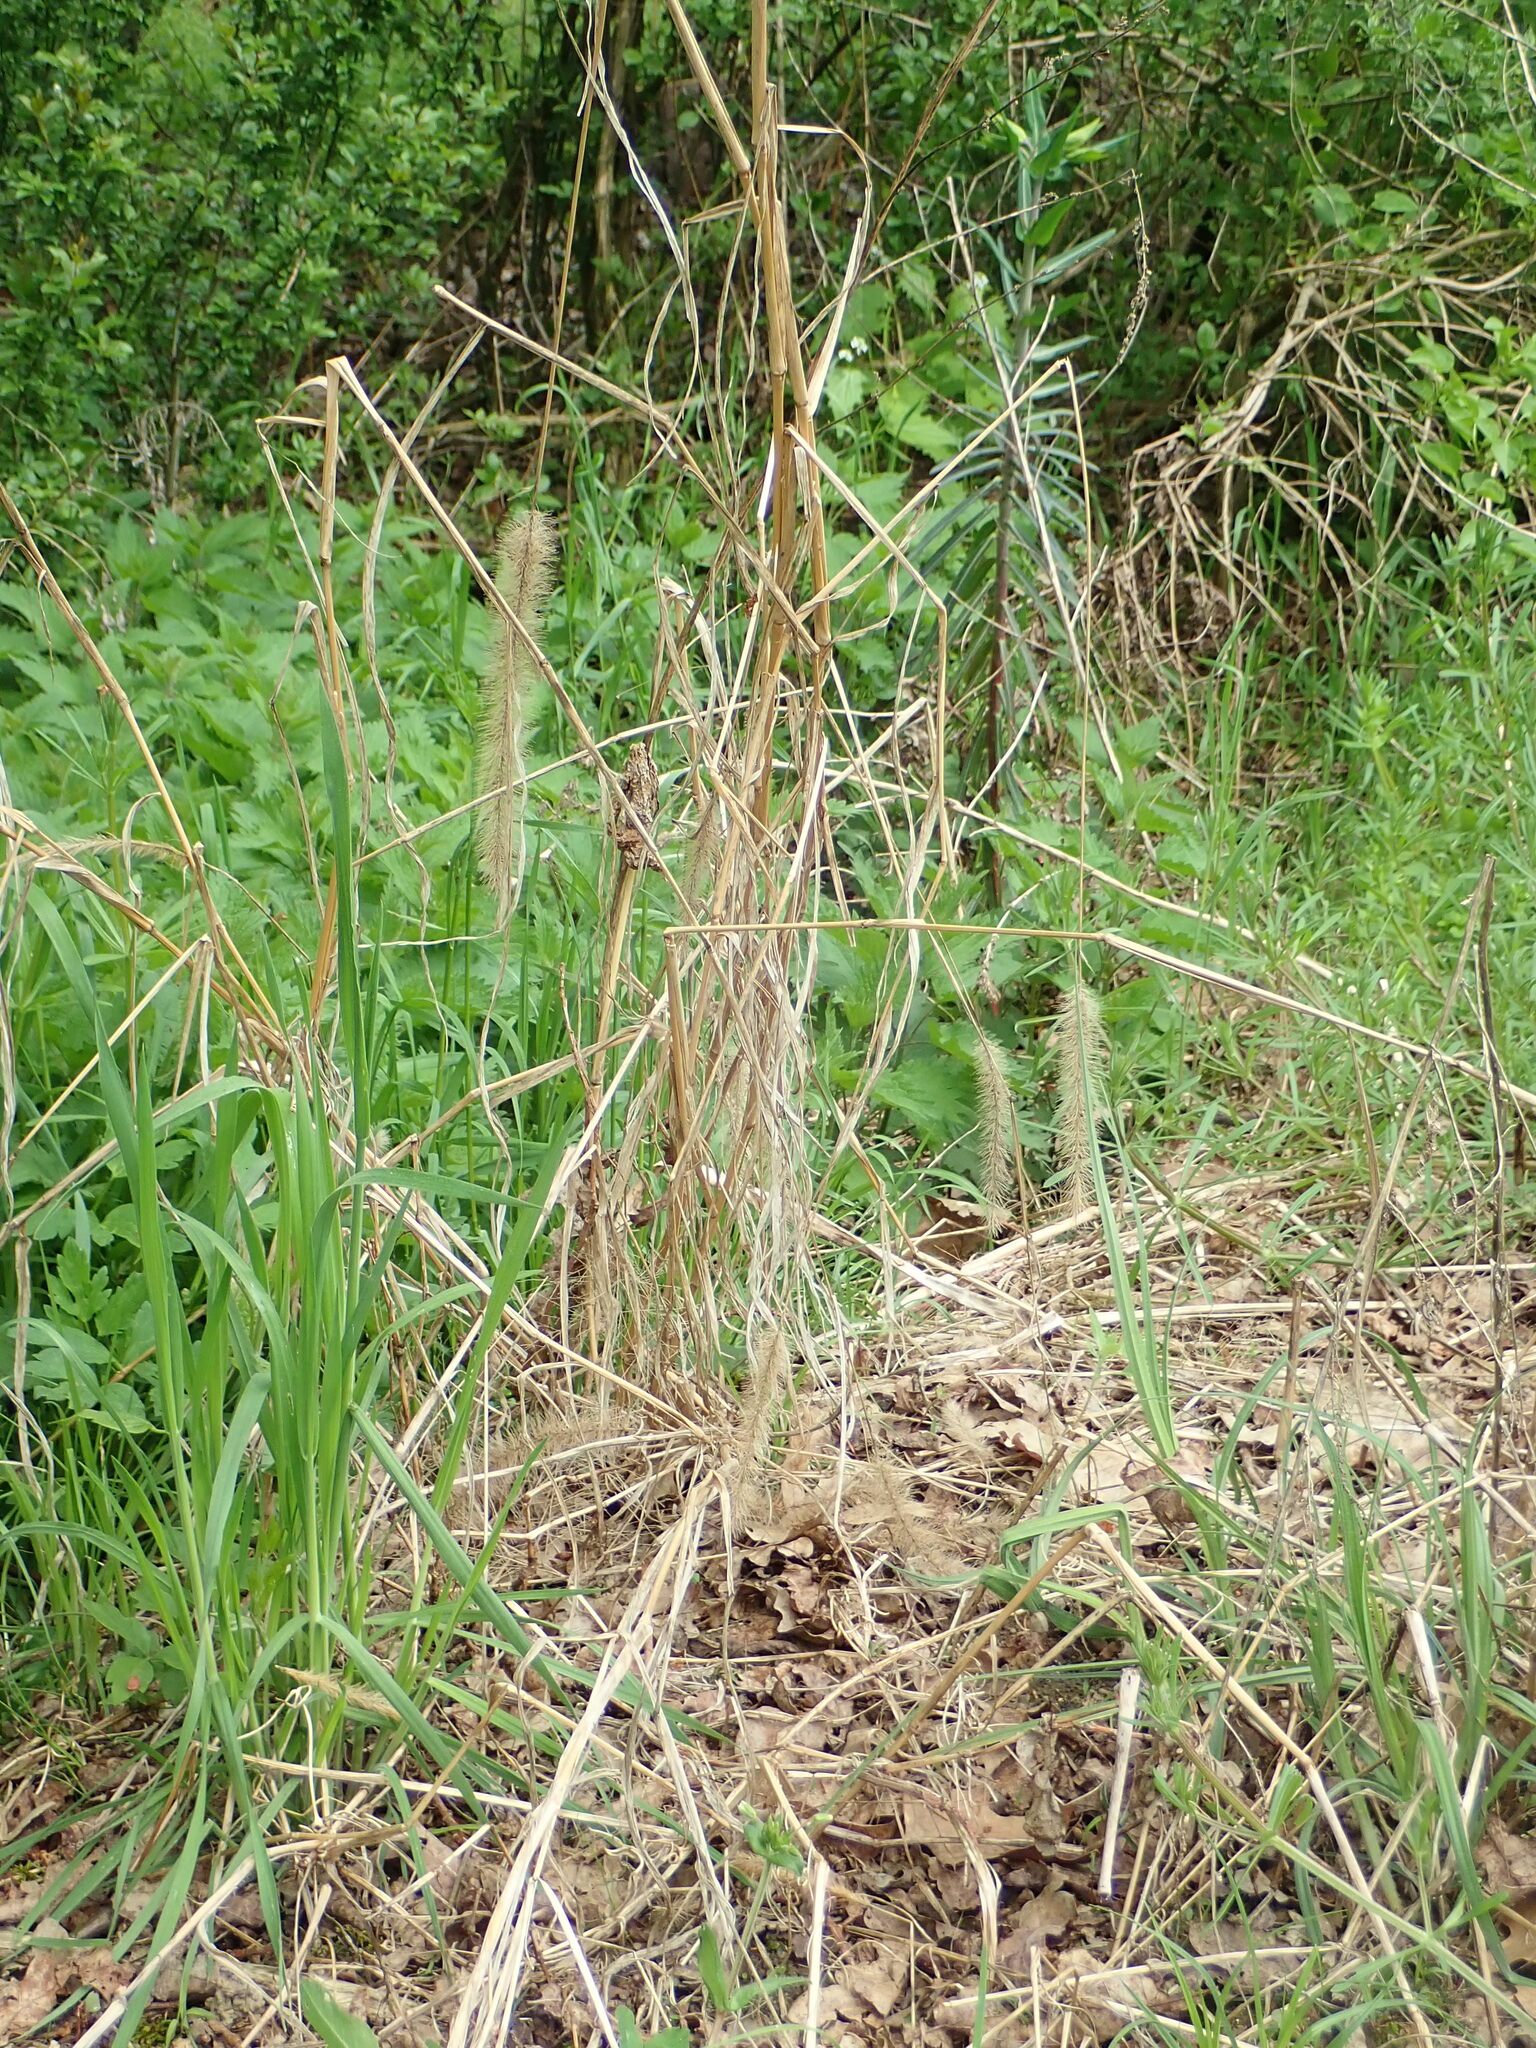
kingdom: Plantae
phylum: Tracheophyta
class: Liliopsida
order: Poales
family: Poaceae
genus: Setaria
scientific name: Setaria faberi
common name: Nodding bristle-grass
